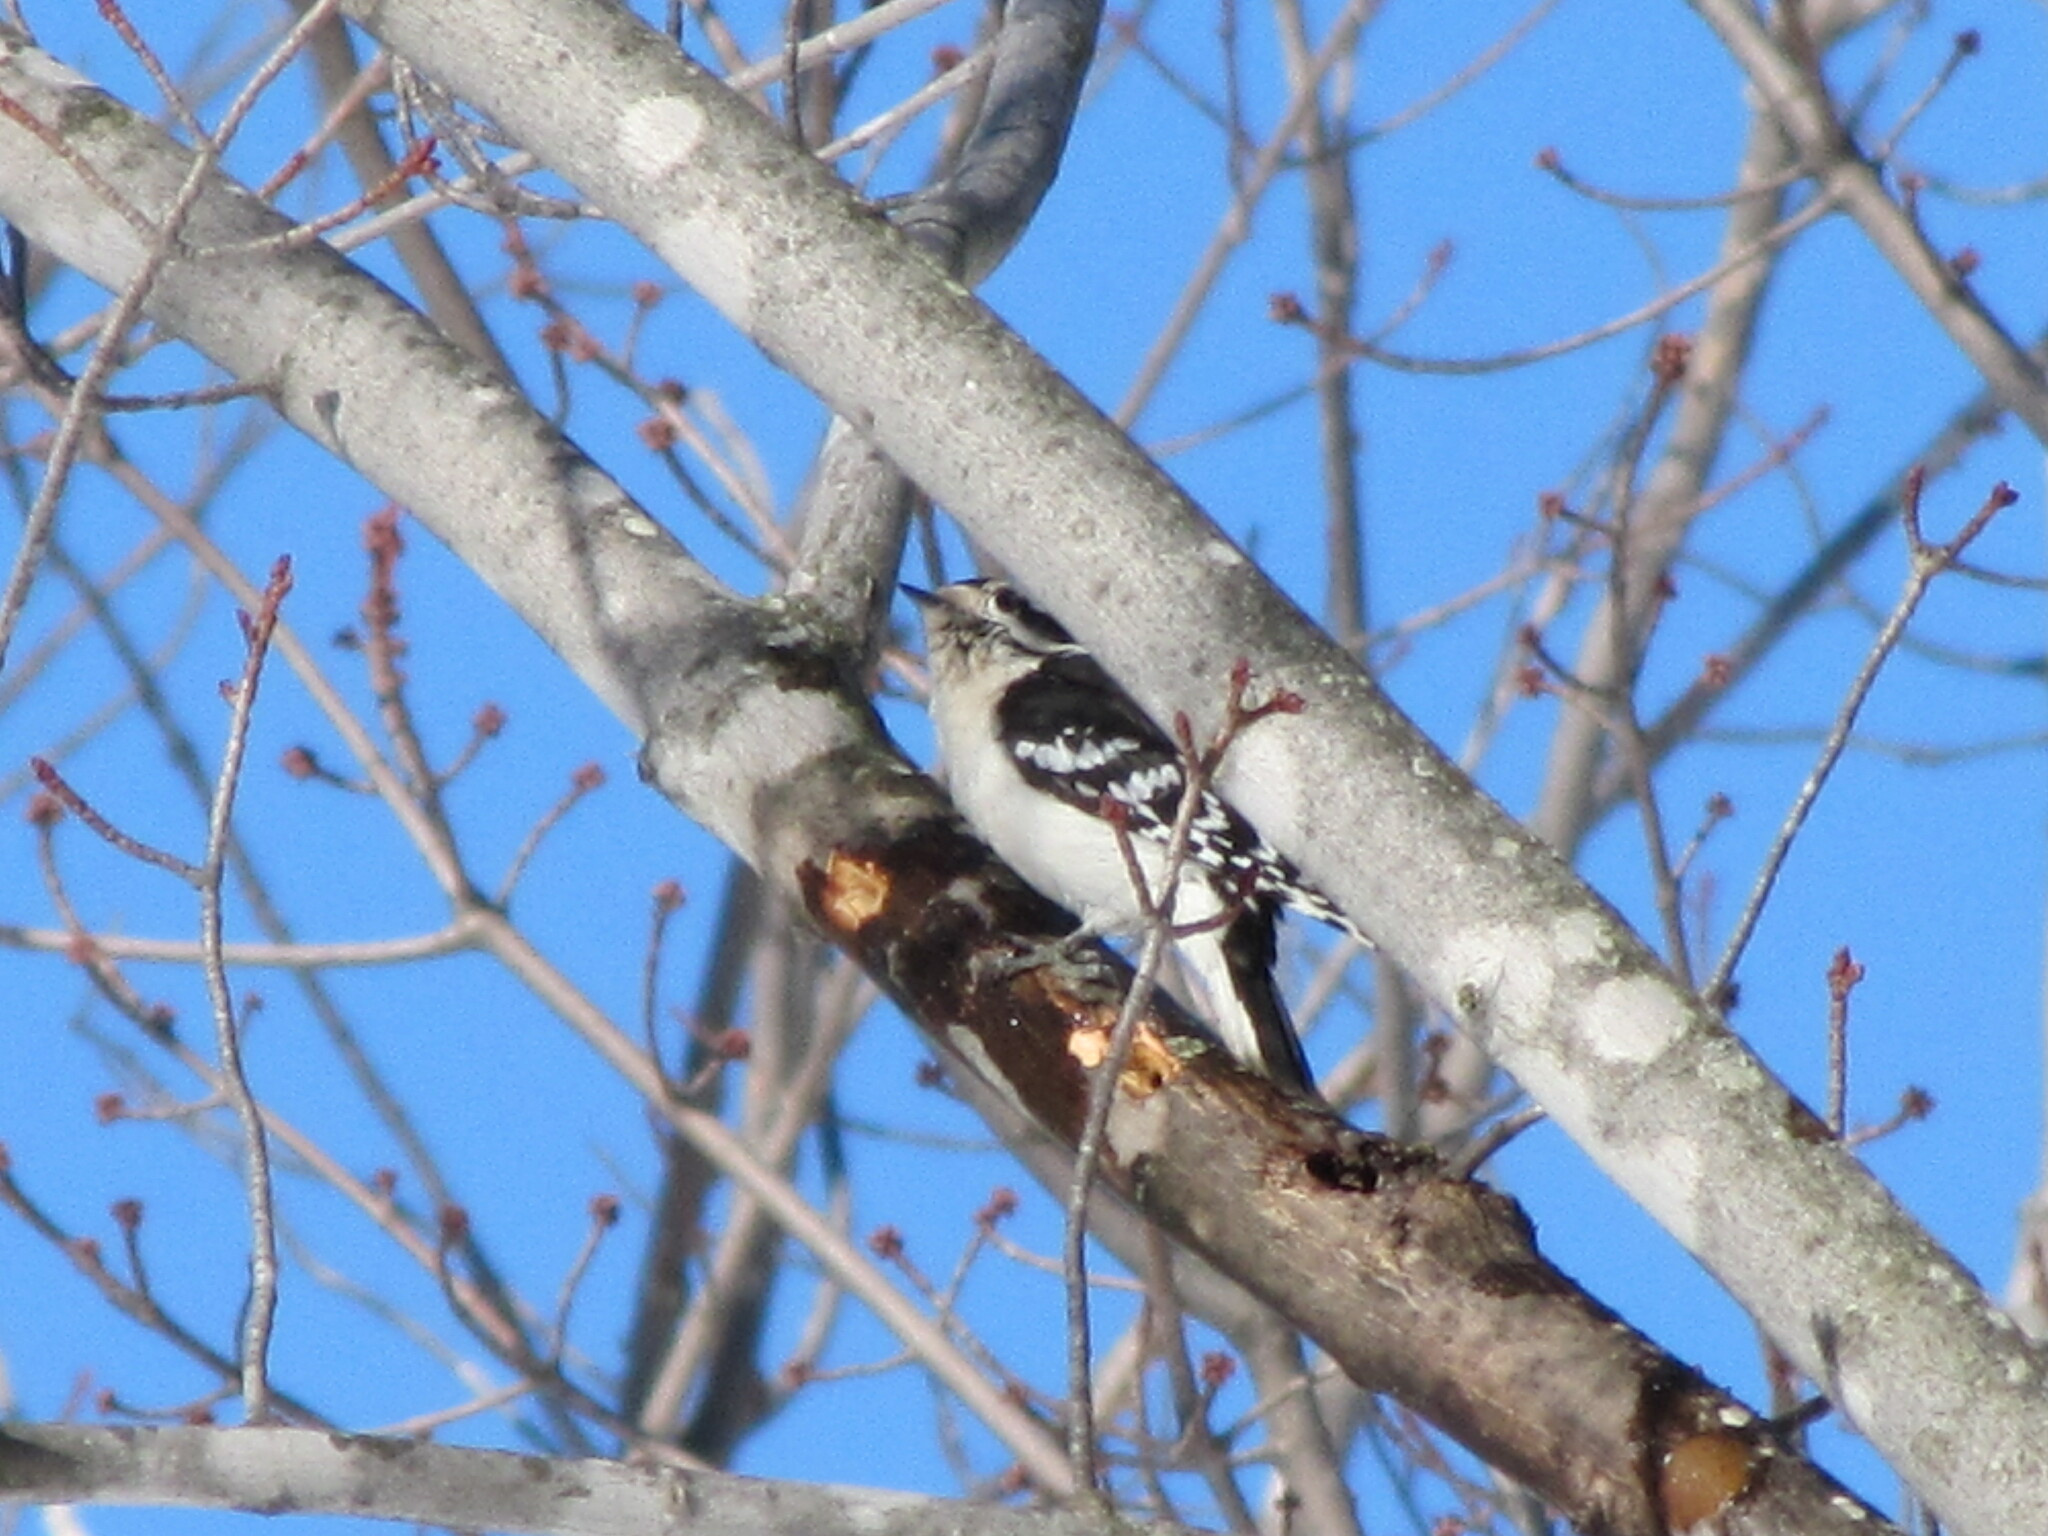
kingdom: Animalia
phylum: Chordata
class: Aves
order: Piciformes
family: Picidae
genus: Dryobates
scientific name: Dryobates pubescens
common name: Downy woodpecker
